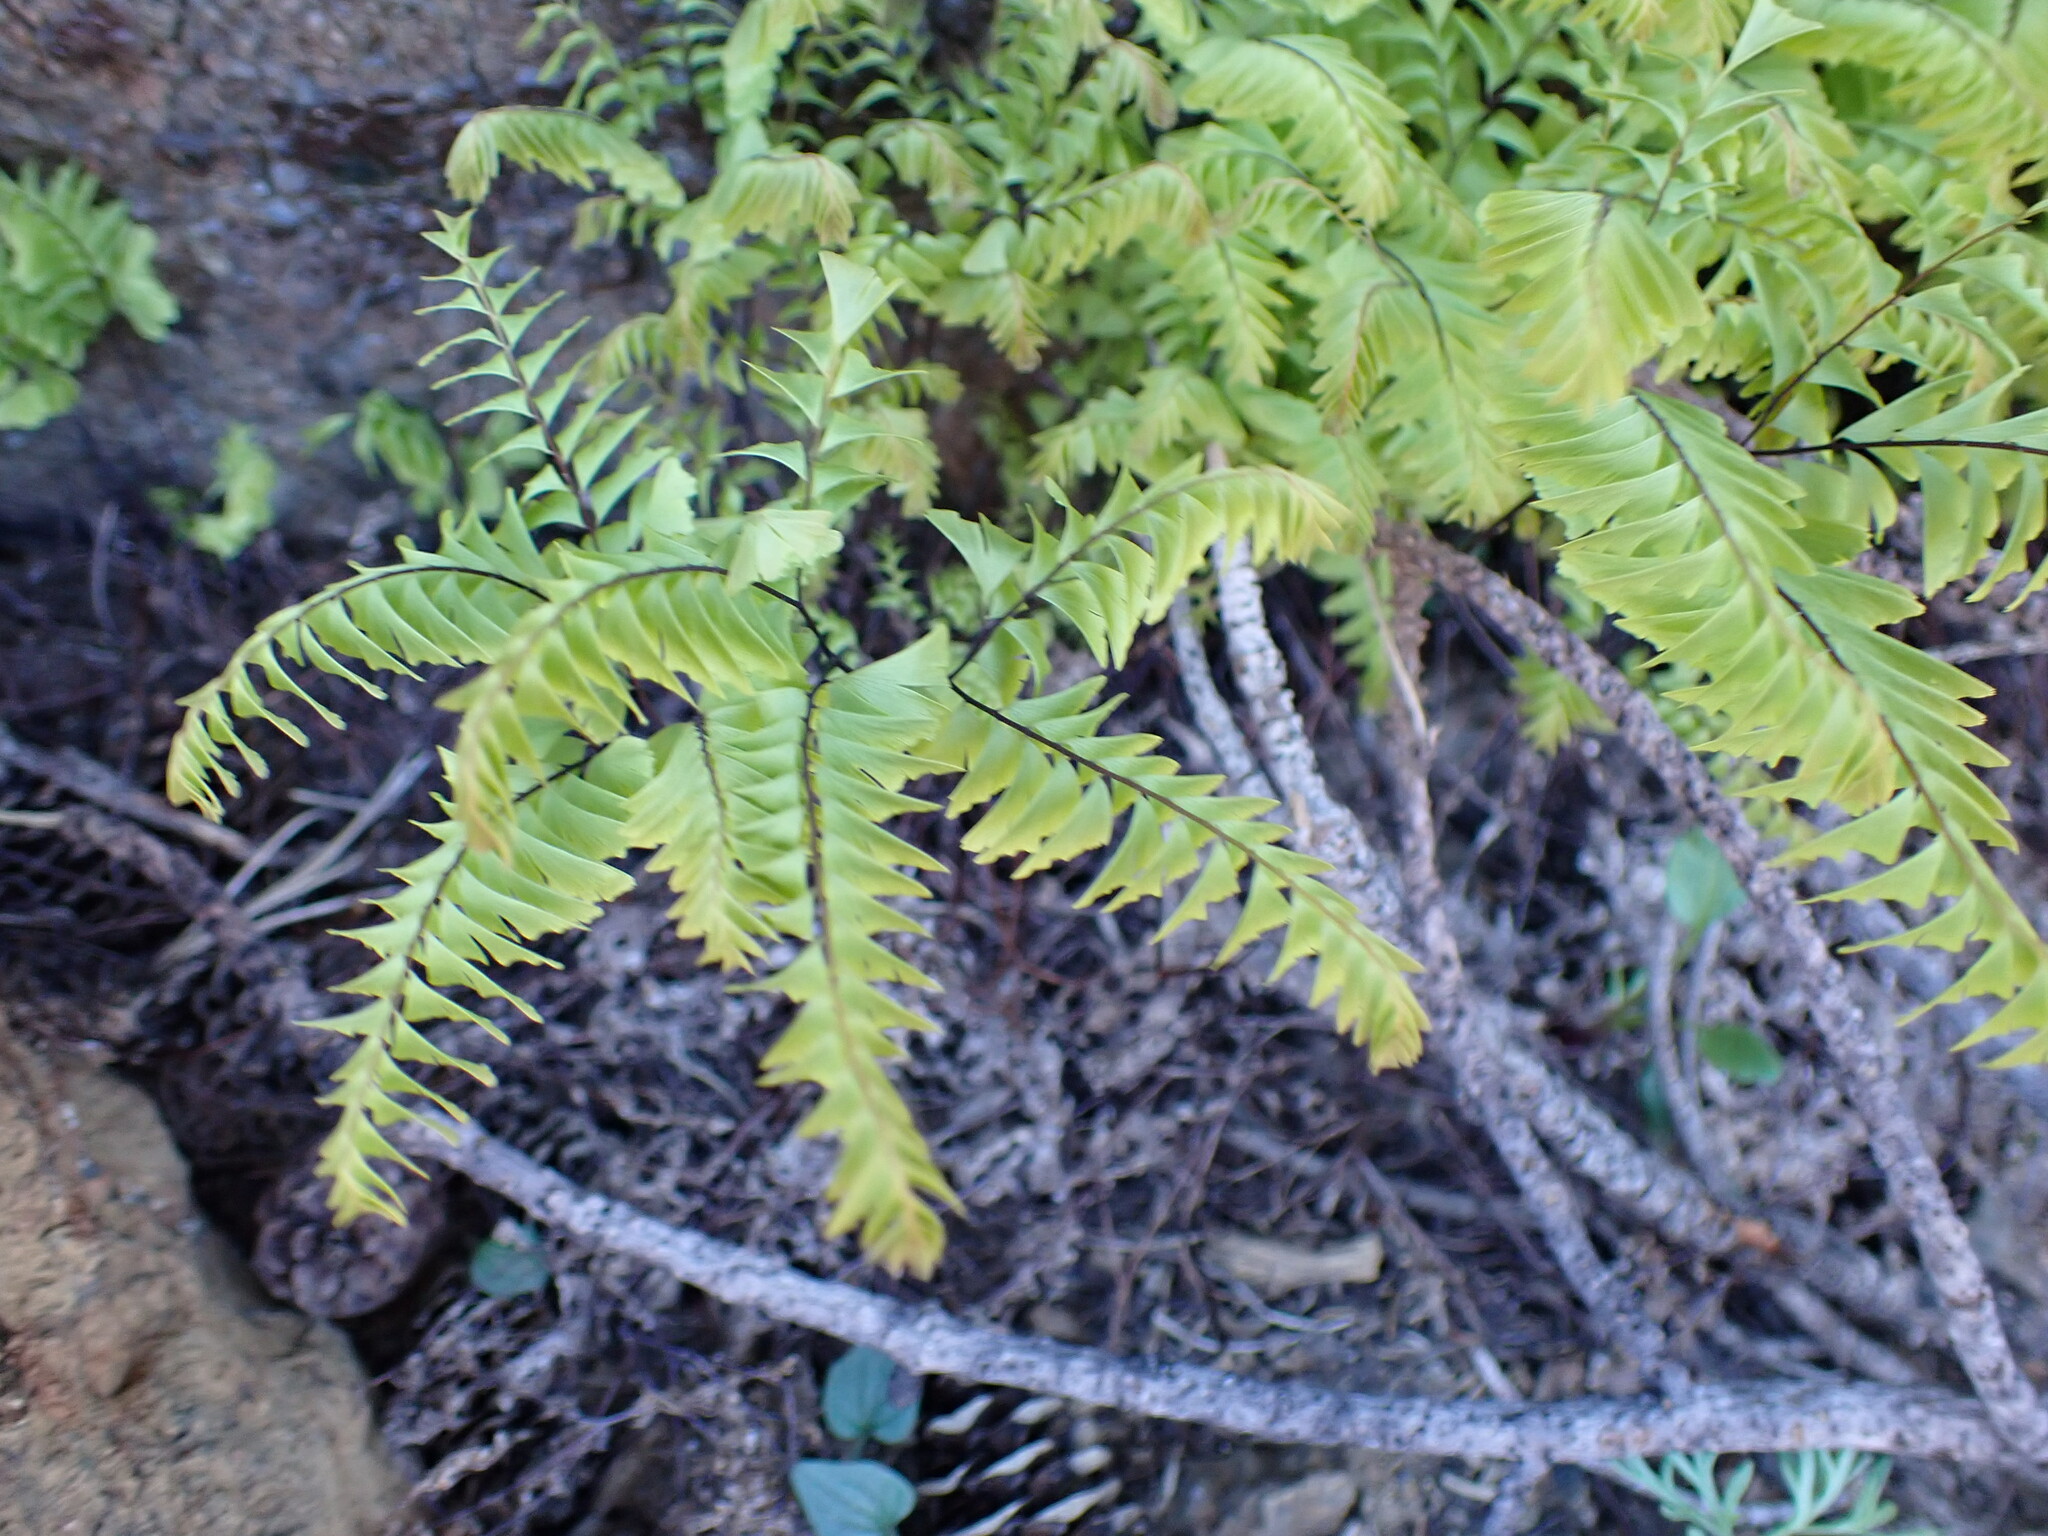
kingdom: Plantae
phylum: Tracheophyta
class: Polypodiopsida
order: Polypodiales
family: Pteridaceae
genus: Adiantum
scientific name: Adiantum aleuticum
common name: Aleutian maidenhair fern
